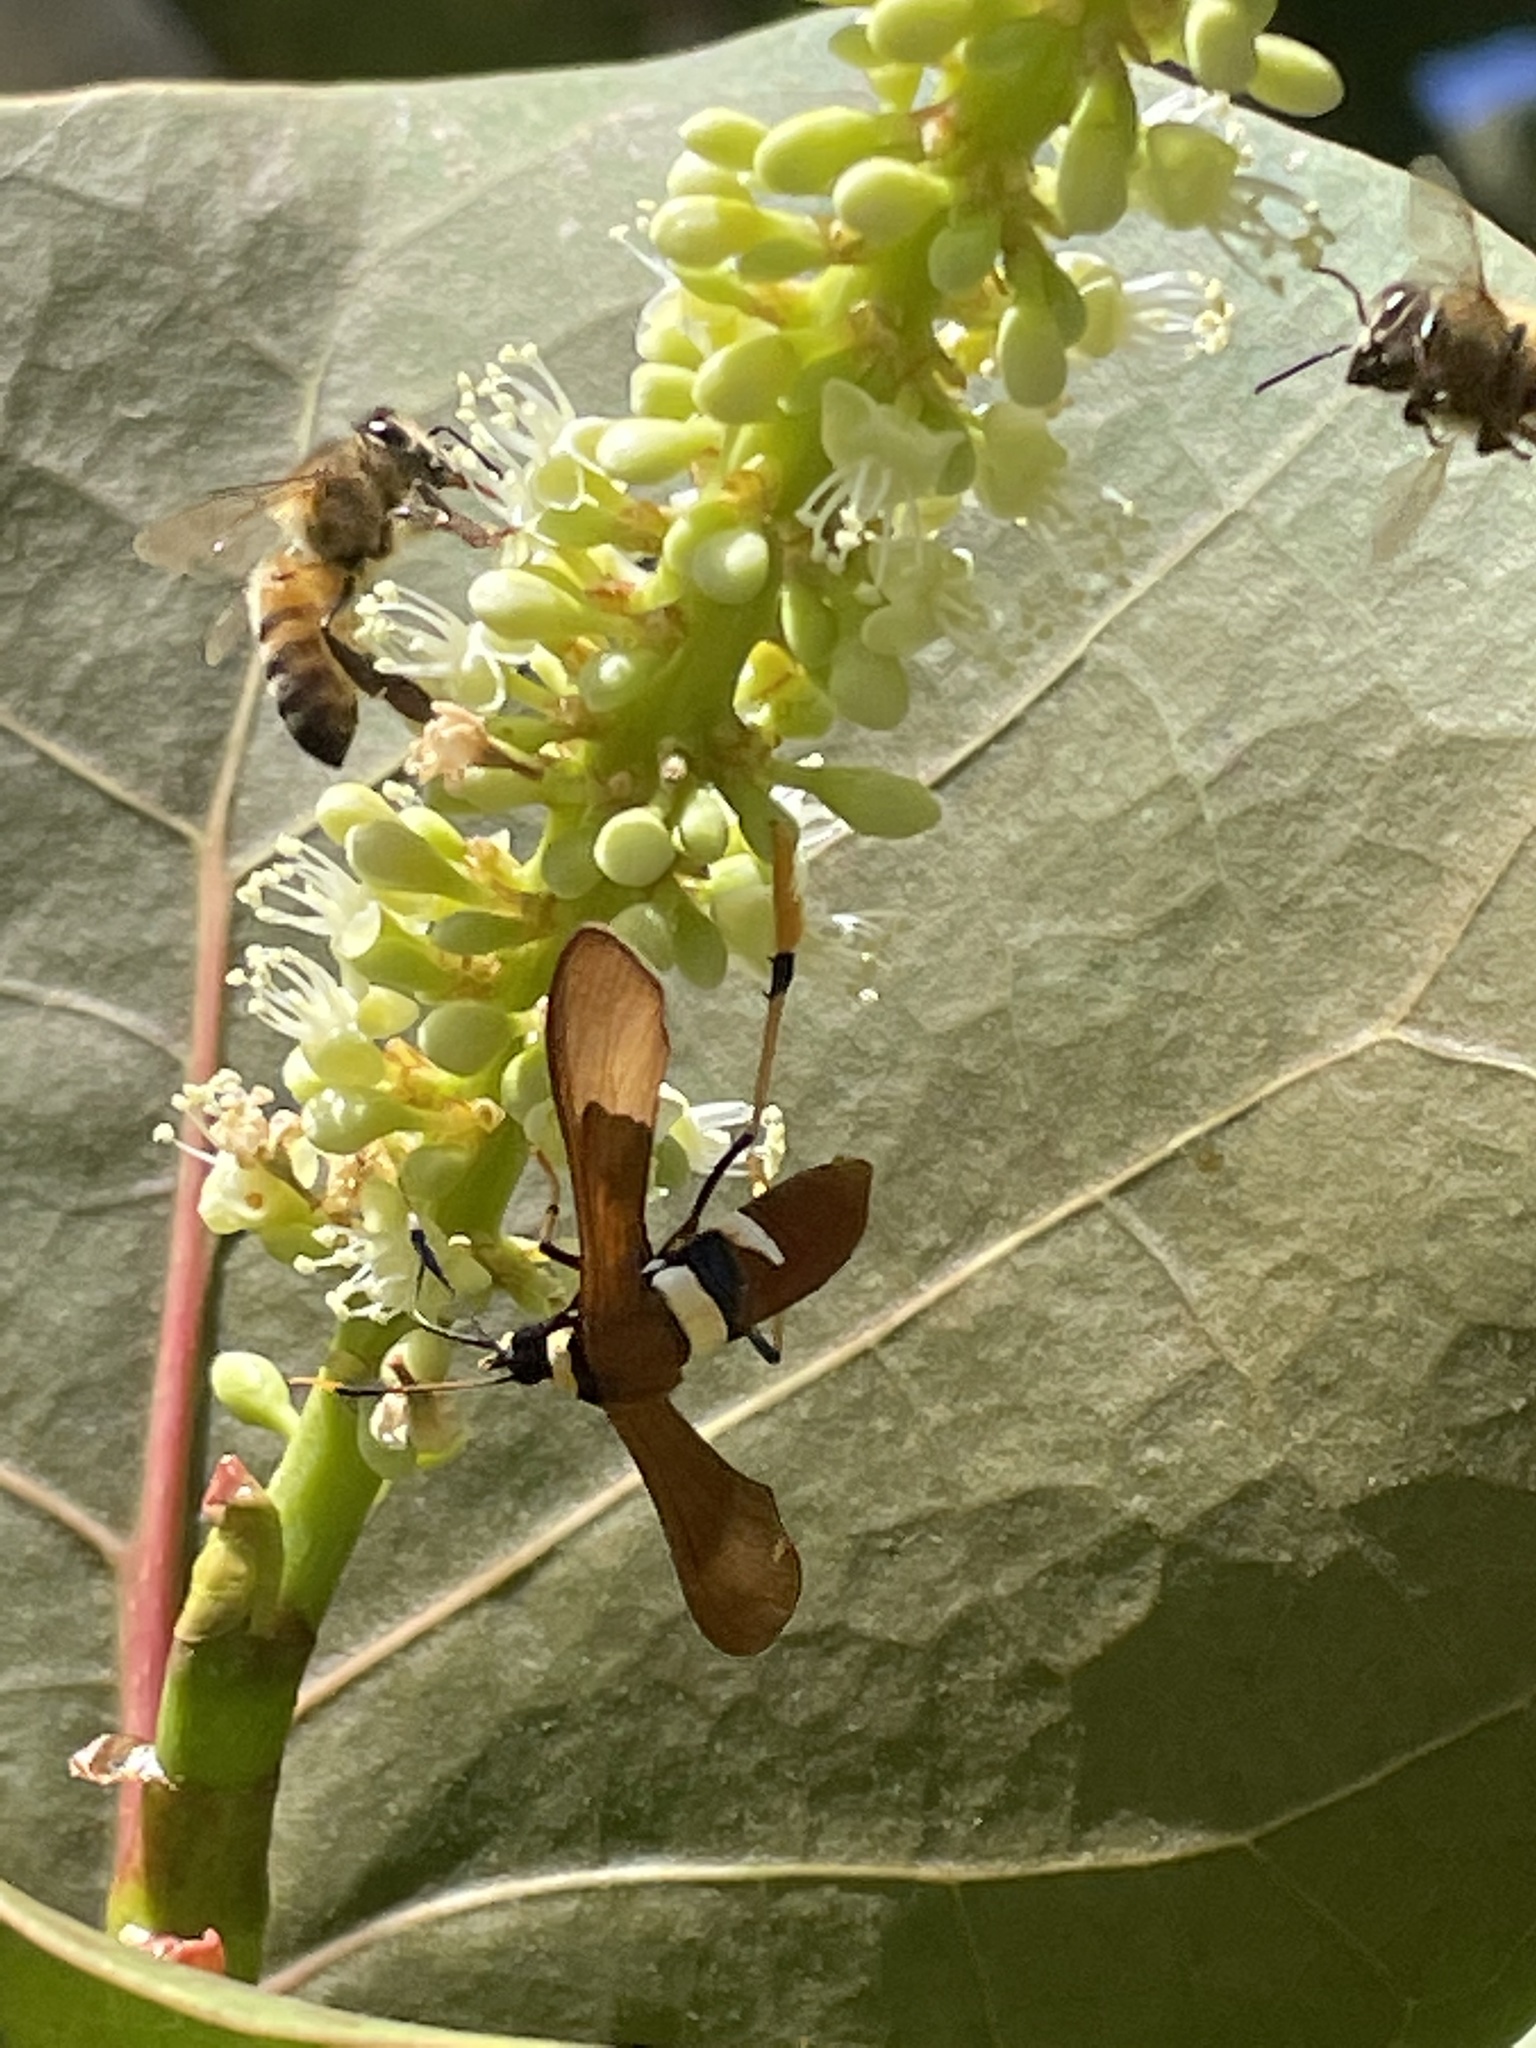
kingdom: Animalia
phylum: Arthropoda
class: Insecta
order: Hymenoptera
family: Apidae
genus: Apis
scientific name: Apis mellifera
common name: Honey bee
